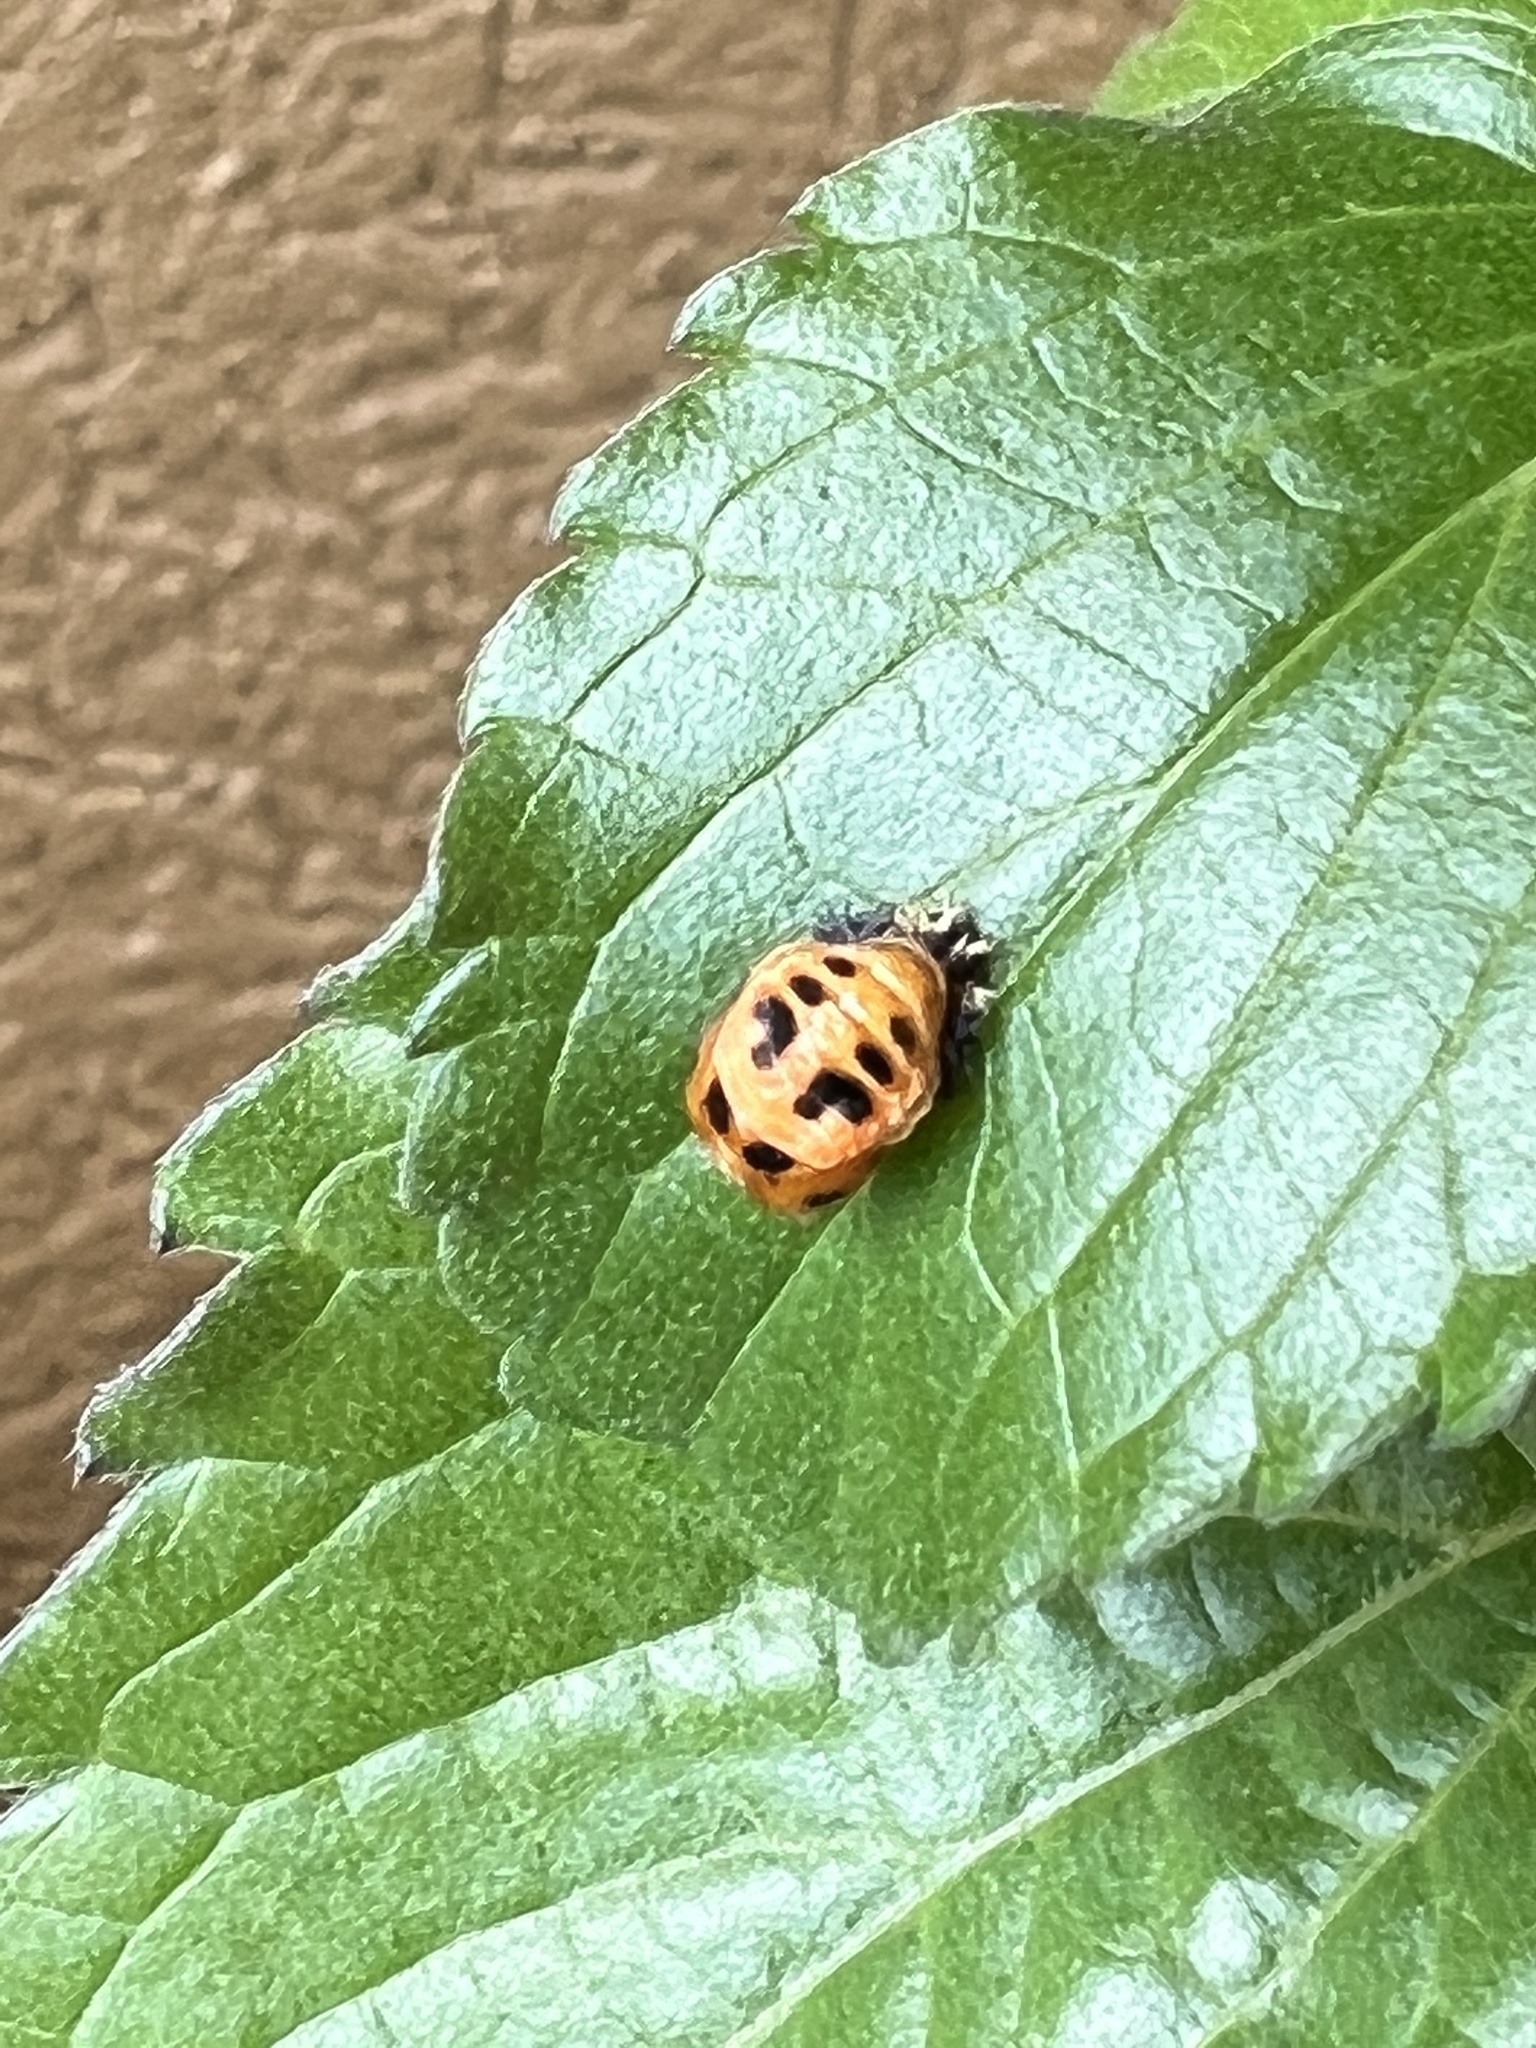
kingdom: Animalia
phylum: Arthropoda
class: Insecta
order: Coleoptera
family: Coccinellidae
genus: Harmonia
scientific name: Harmonia axyridis
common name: Harlequin ladybird
